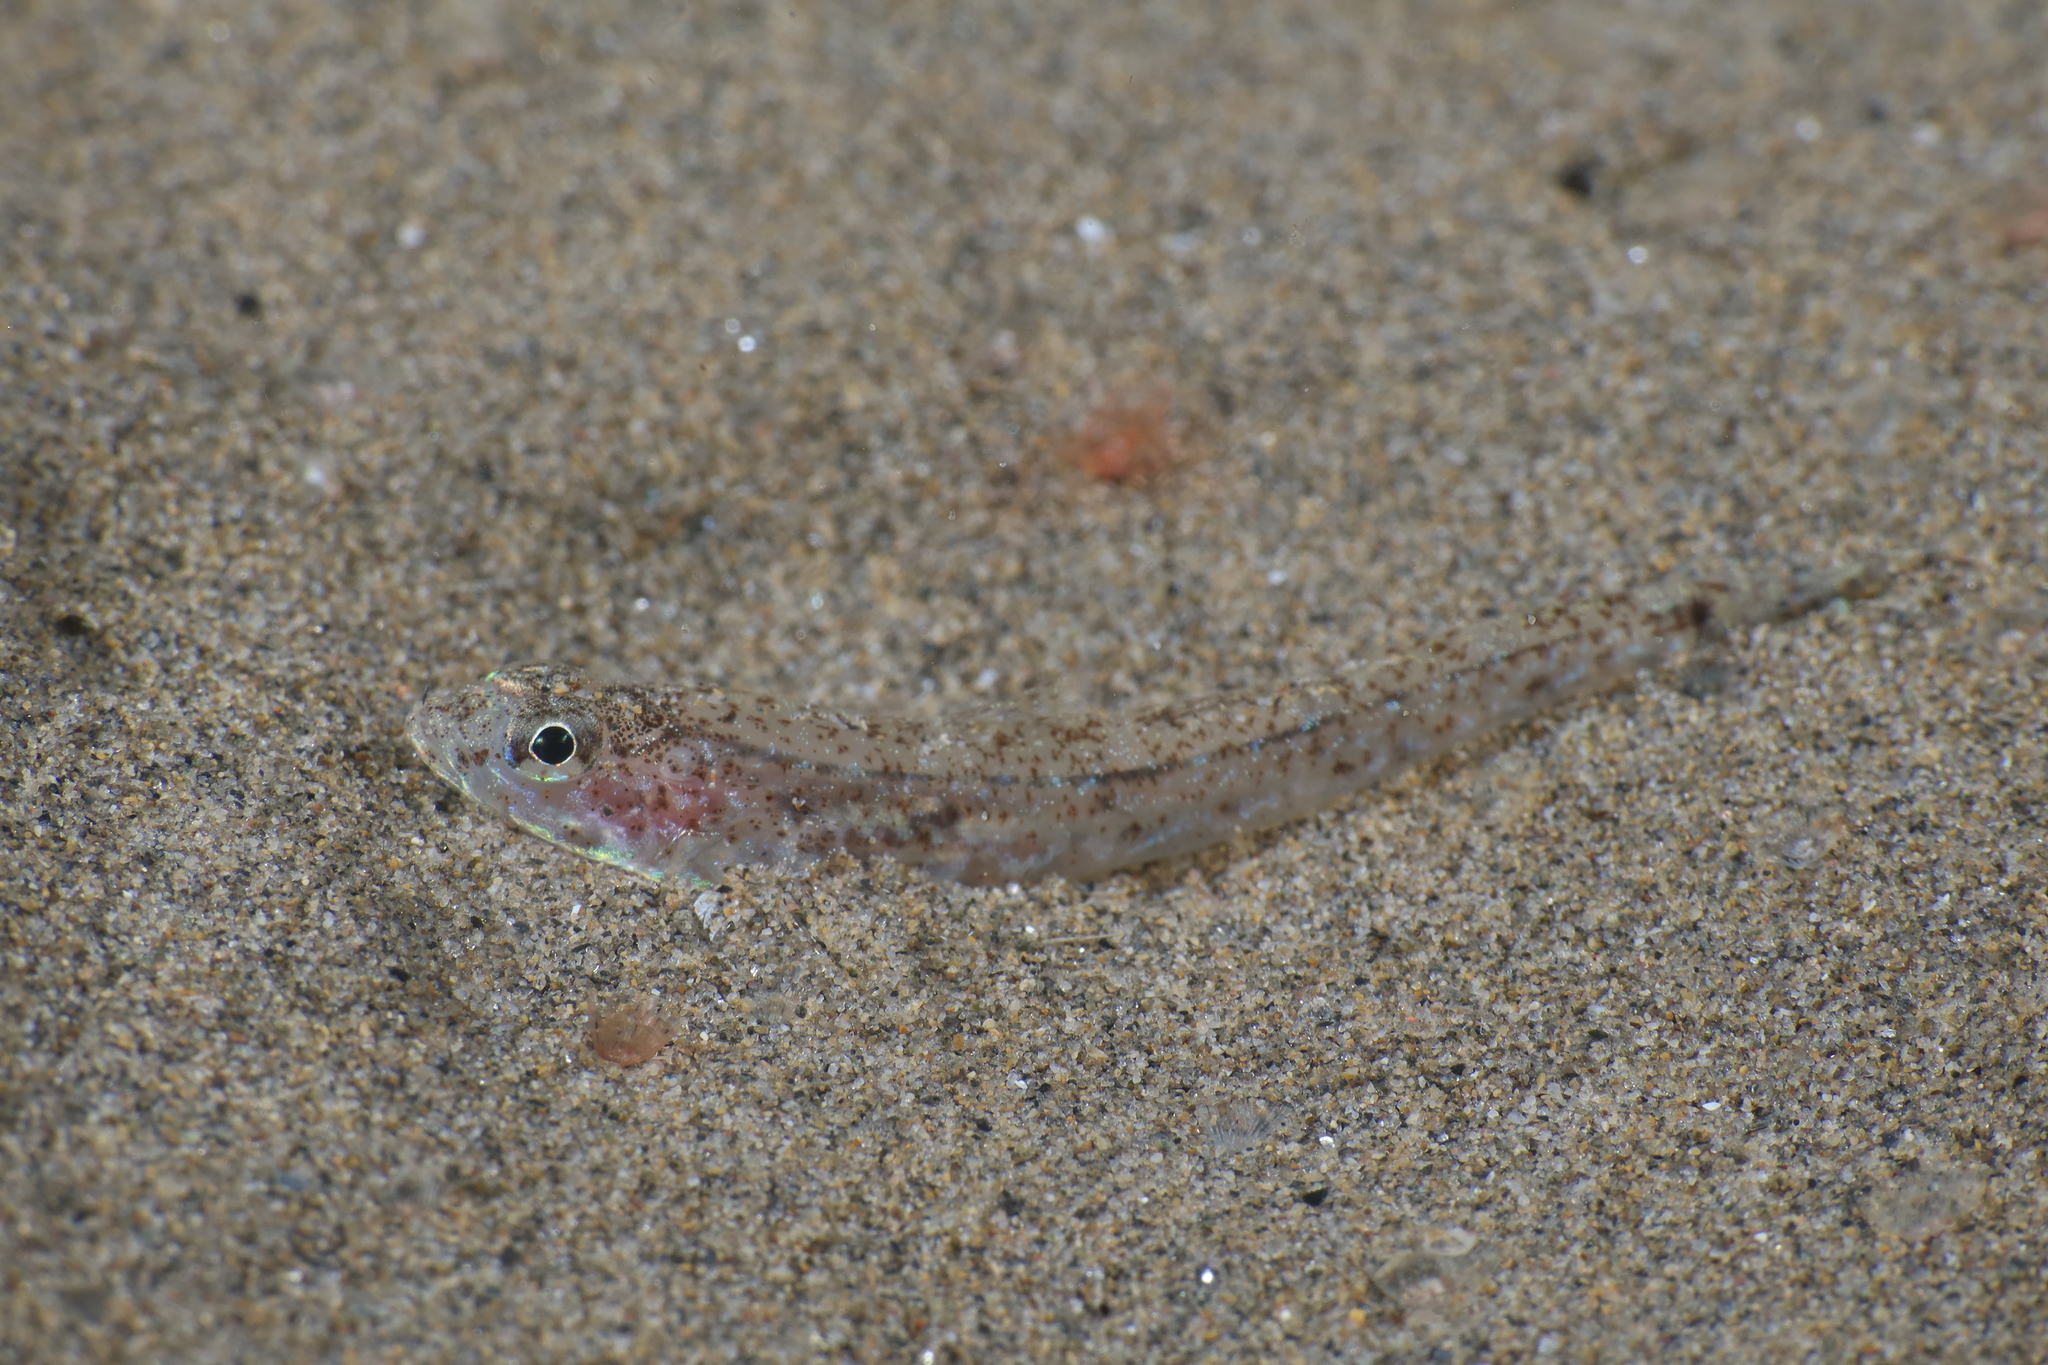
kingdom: Animalia
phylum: Chordata
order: Perciformes
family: Gobiidae
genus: Pomatoschistus
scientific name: Pomatoschistus marmoratus
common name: Marbled goby
